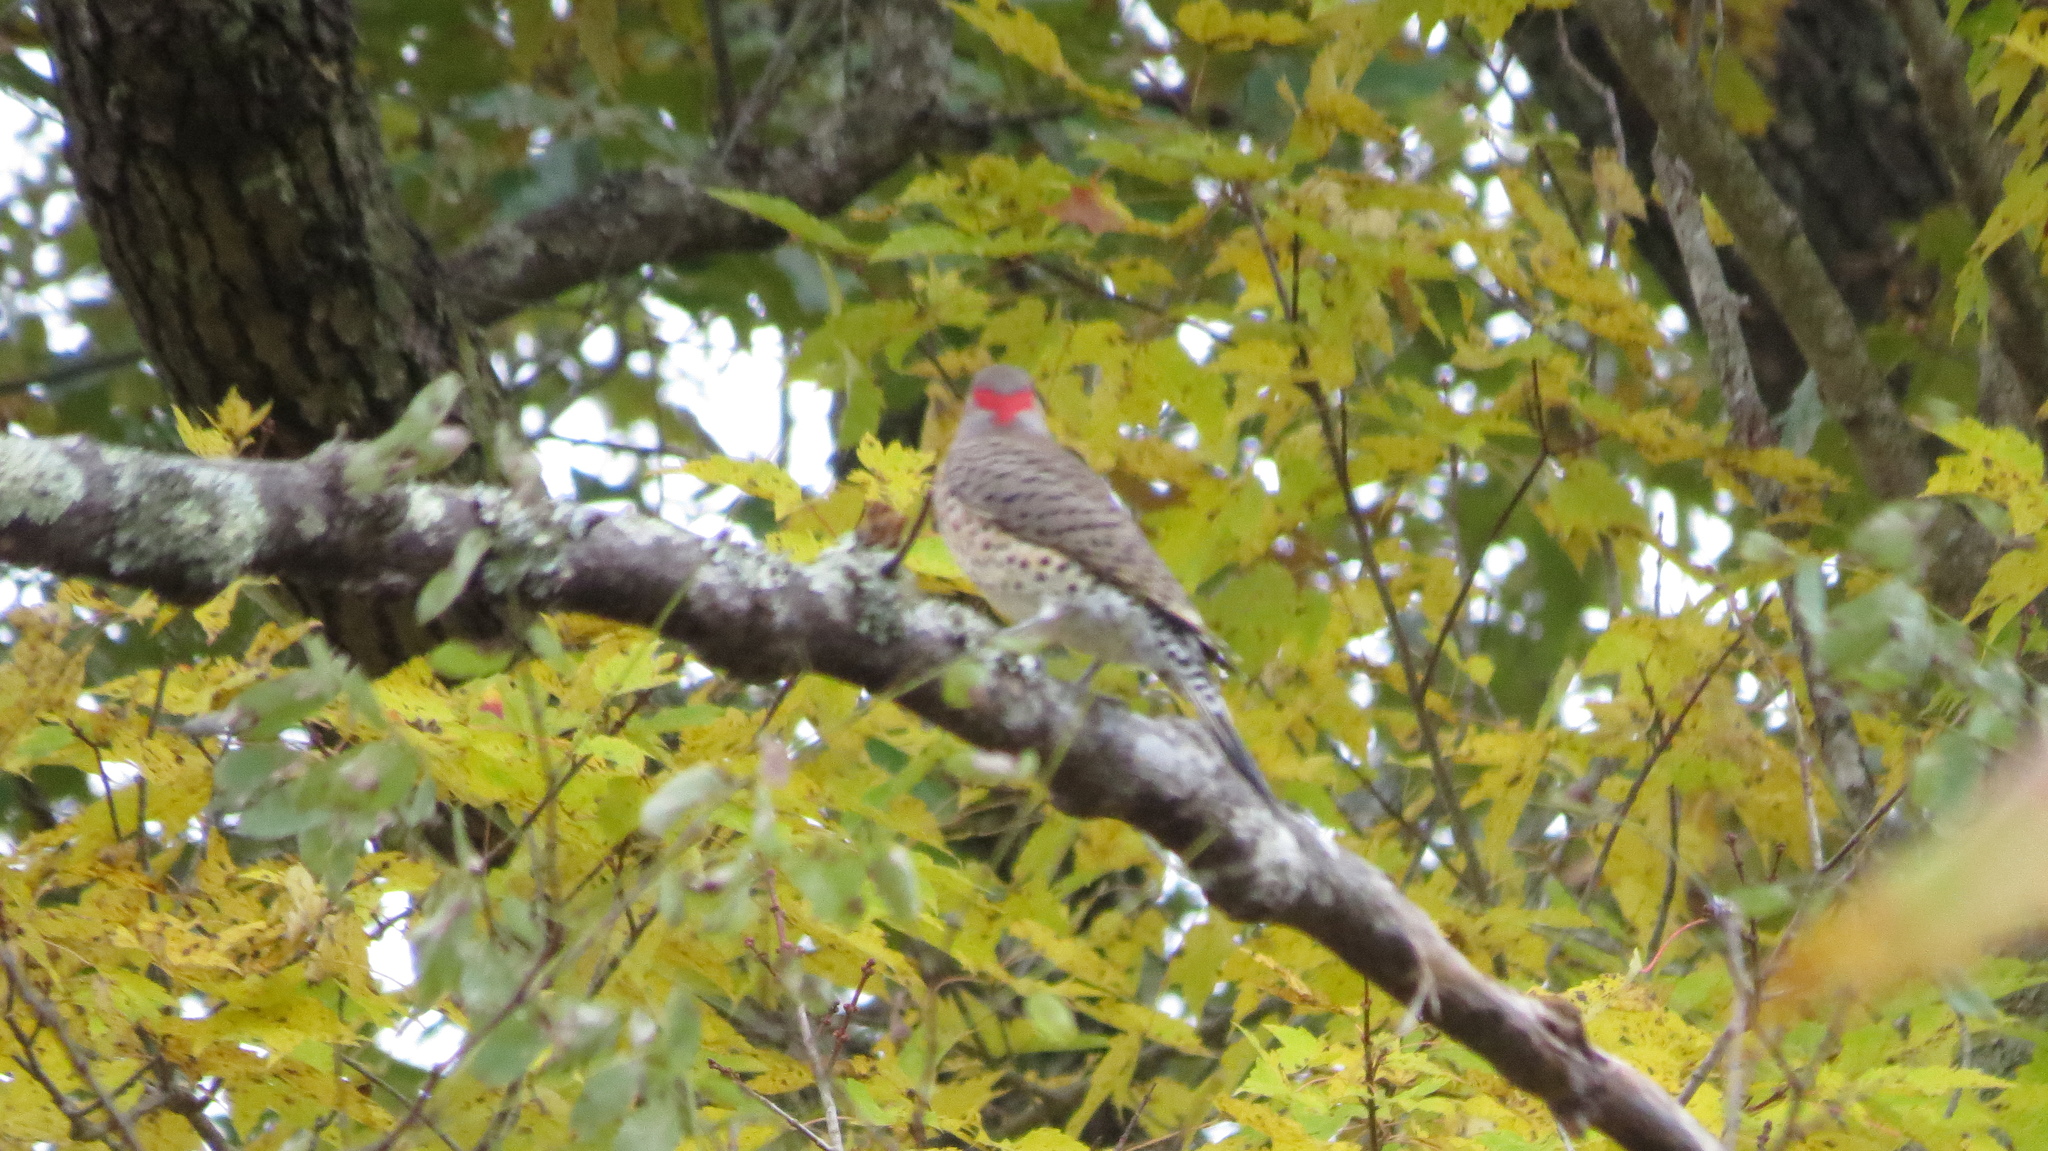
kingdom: Animalia
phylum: Chordata
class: Aves
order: Piciformes
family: Picidae
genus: Colaptes
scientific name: Colaptes auratus
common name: Northern flicker
